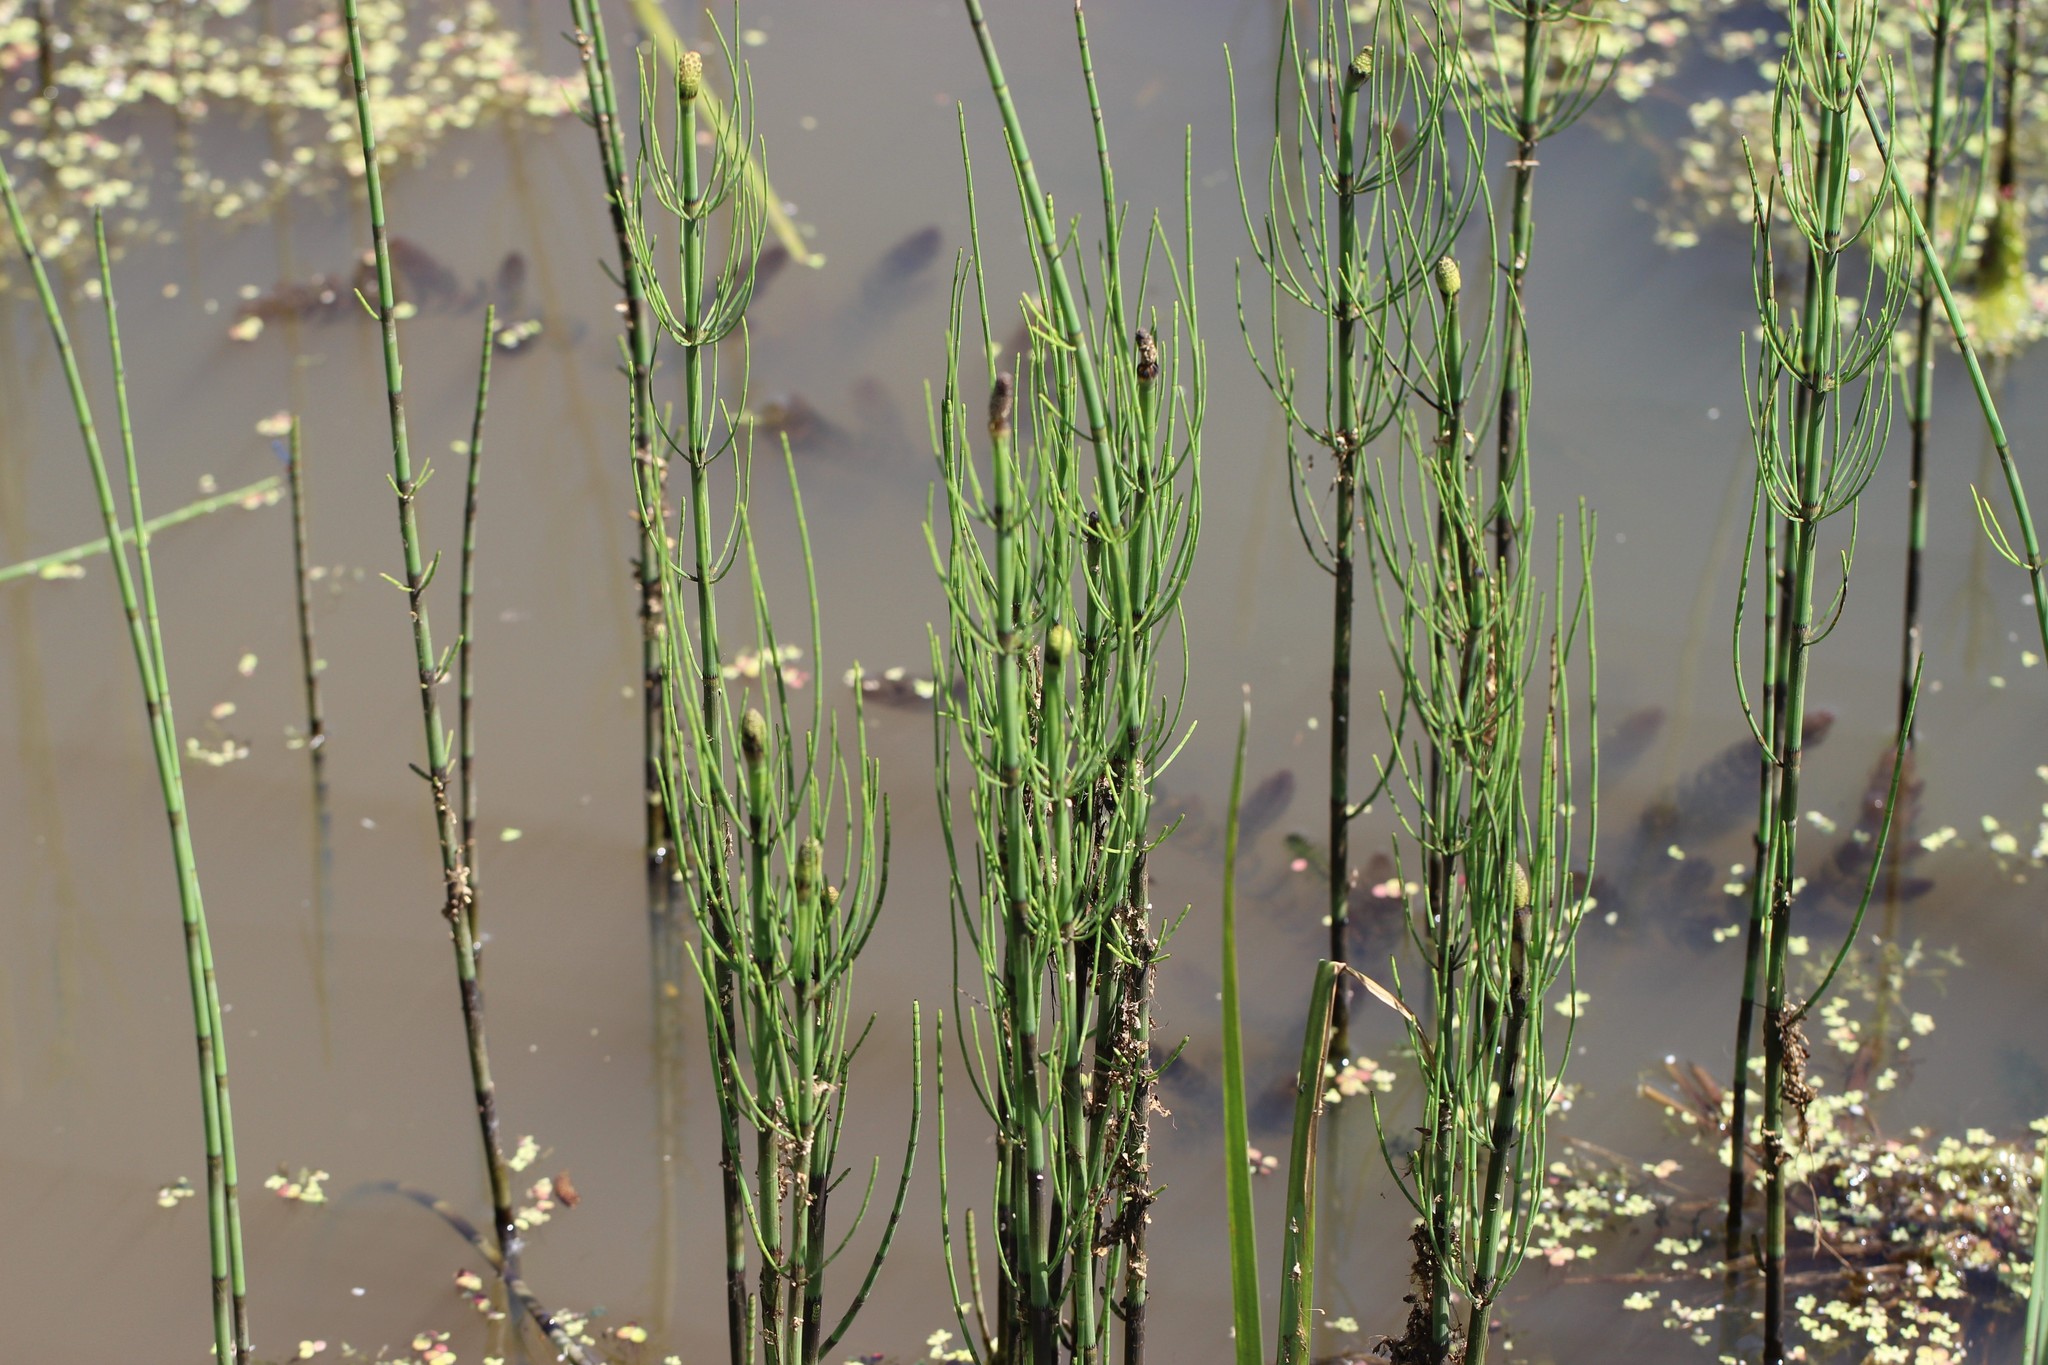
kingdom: Plantae
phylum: Tracheophyta
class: Polypodiopsida
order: Equisetales
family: Equisetaceae
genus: Equisetum
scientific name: Equisetum fluviatile
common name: Water horsetail
